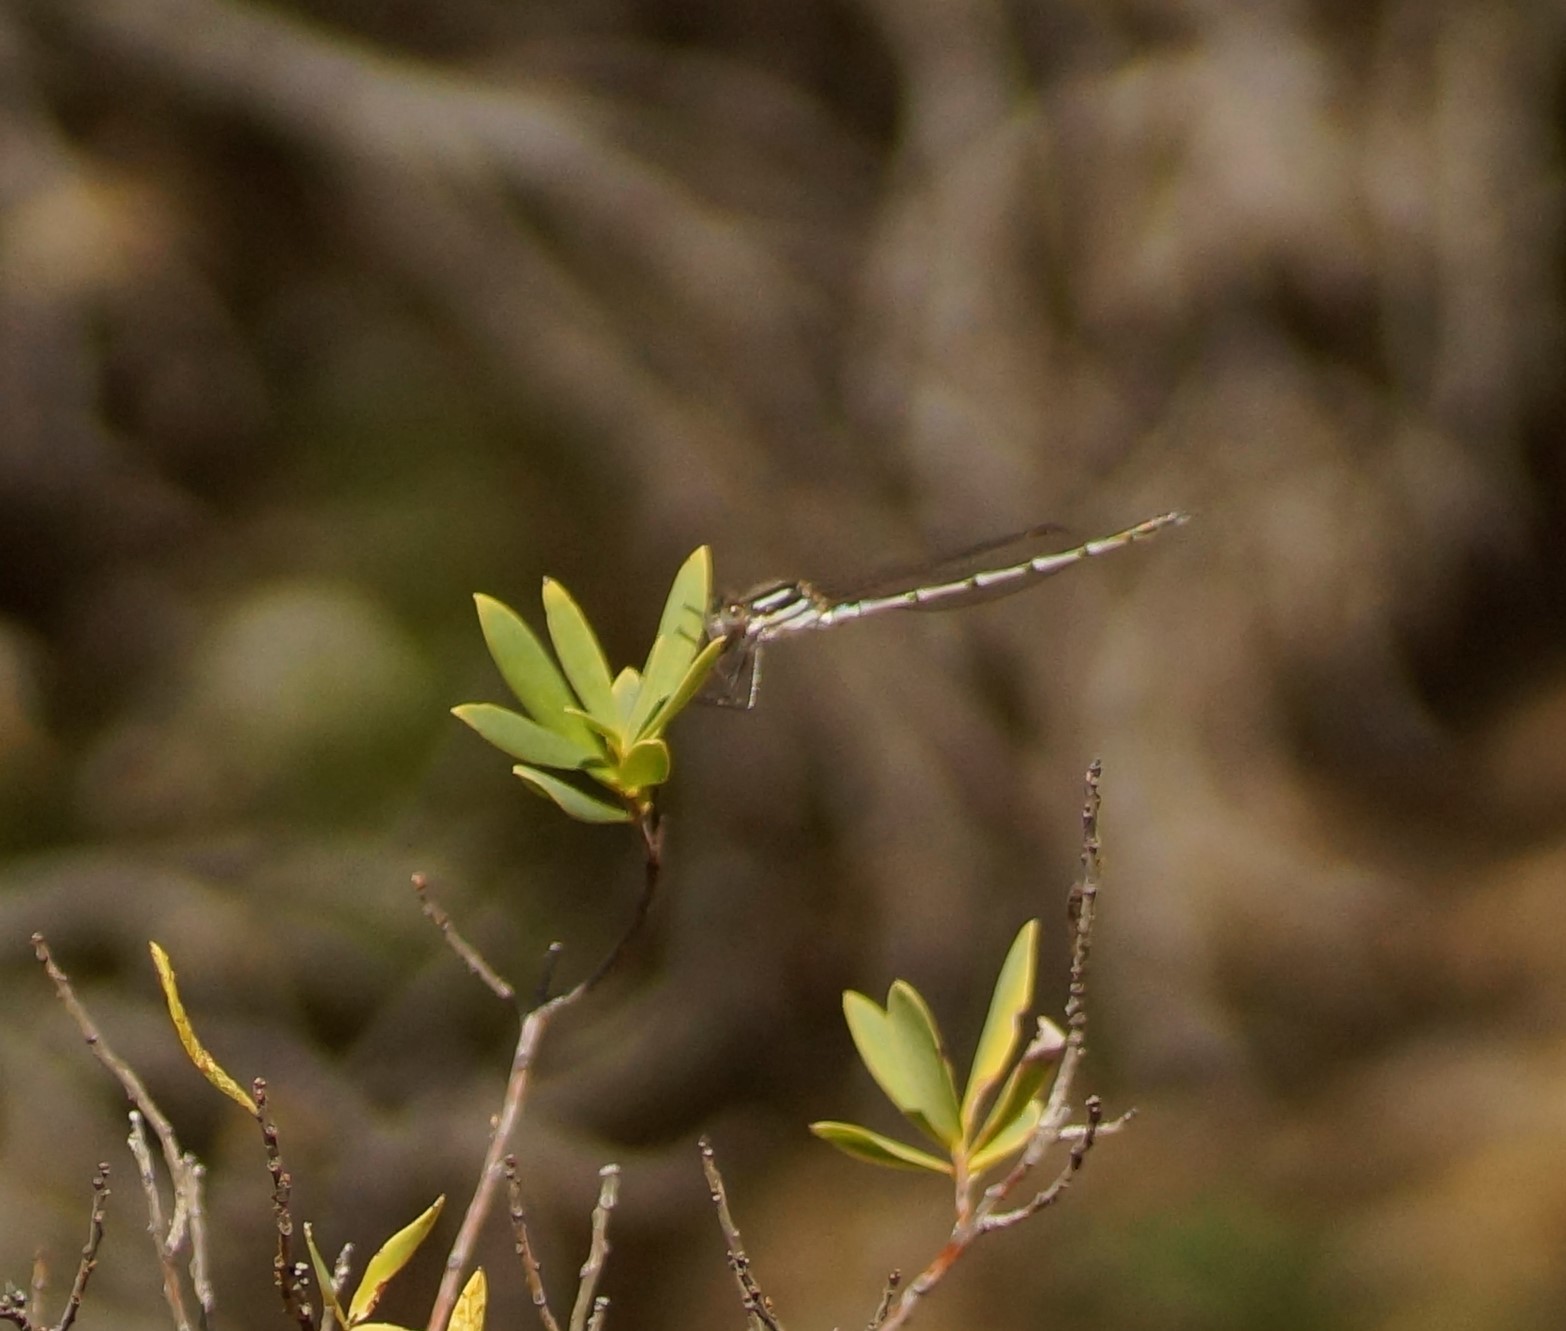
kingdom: Animalia
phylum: Arthropoda
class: Insecta
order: Odonata
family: Lestidae
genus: Austrolestes
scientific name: Austrolestes annulosus
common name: Blue ringtail
